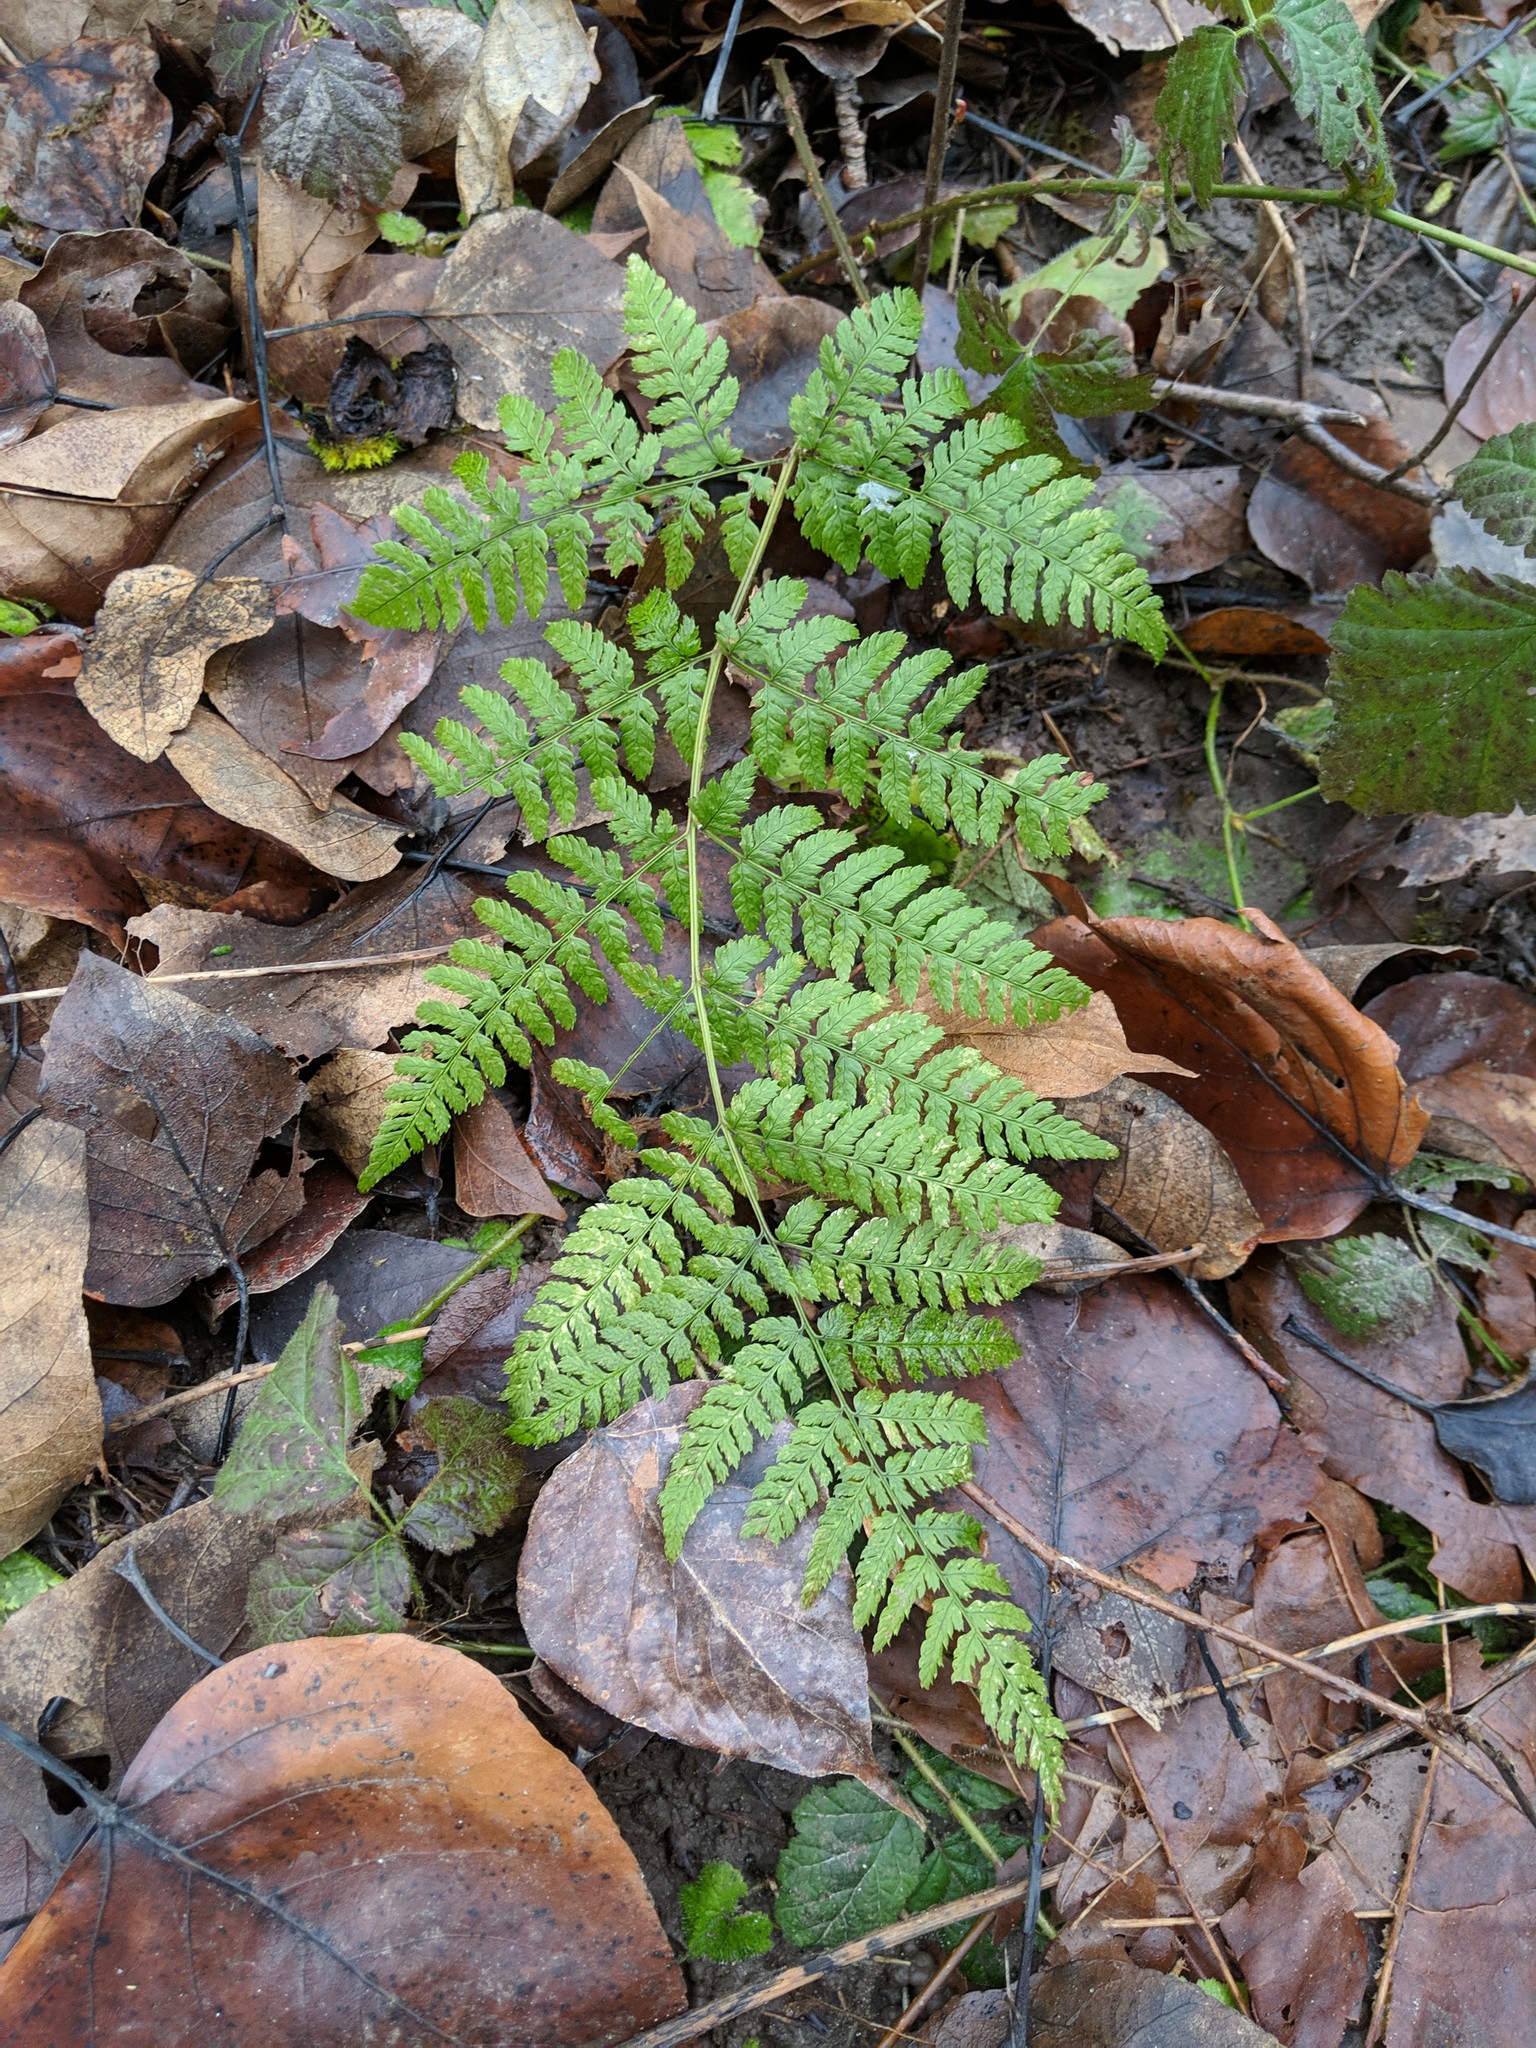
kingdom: Plantae
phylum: Tracheophyta
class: Polypodiopsida
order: Polypodiales
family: Dryopteridaceae
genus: Dryopteris
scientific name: Dryopteris expansa
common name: Northern buckler fern
